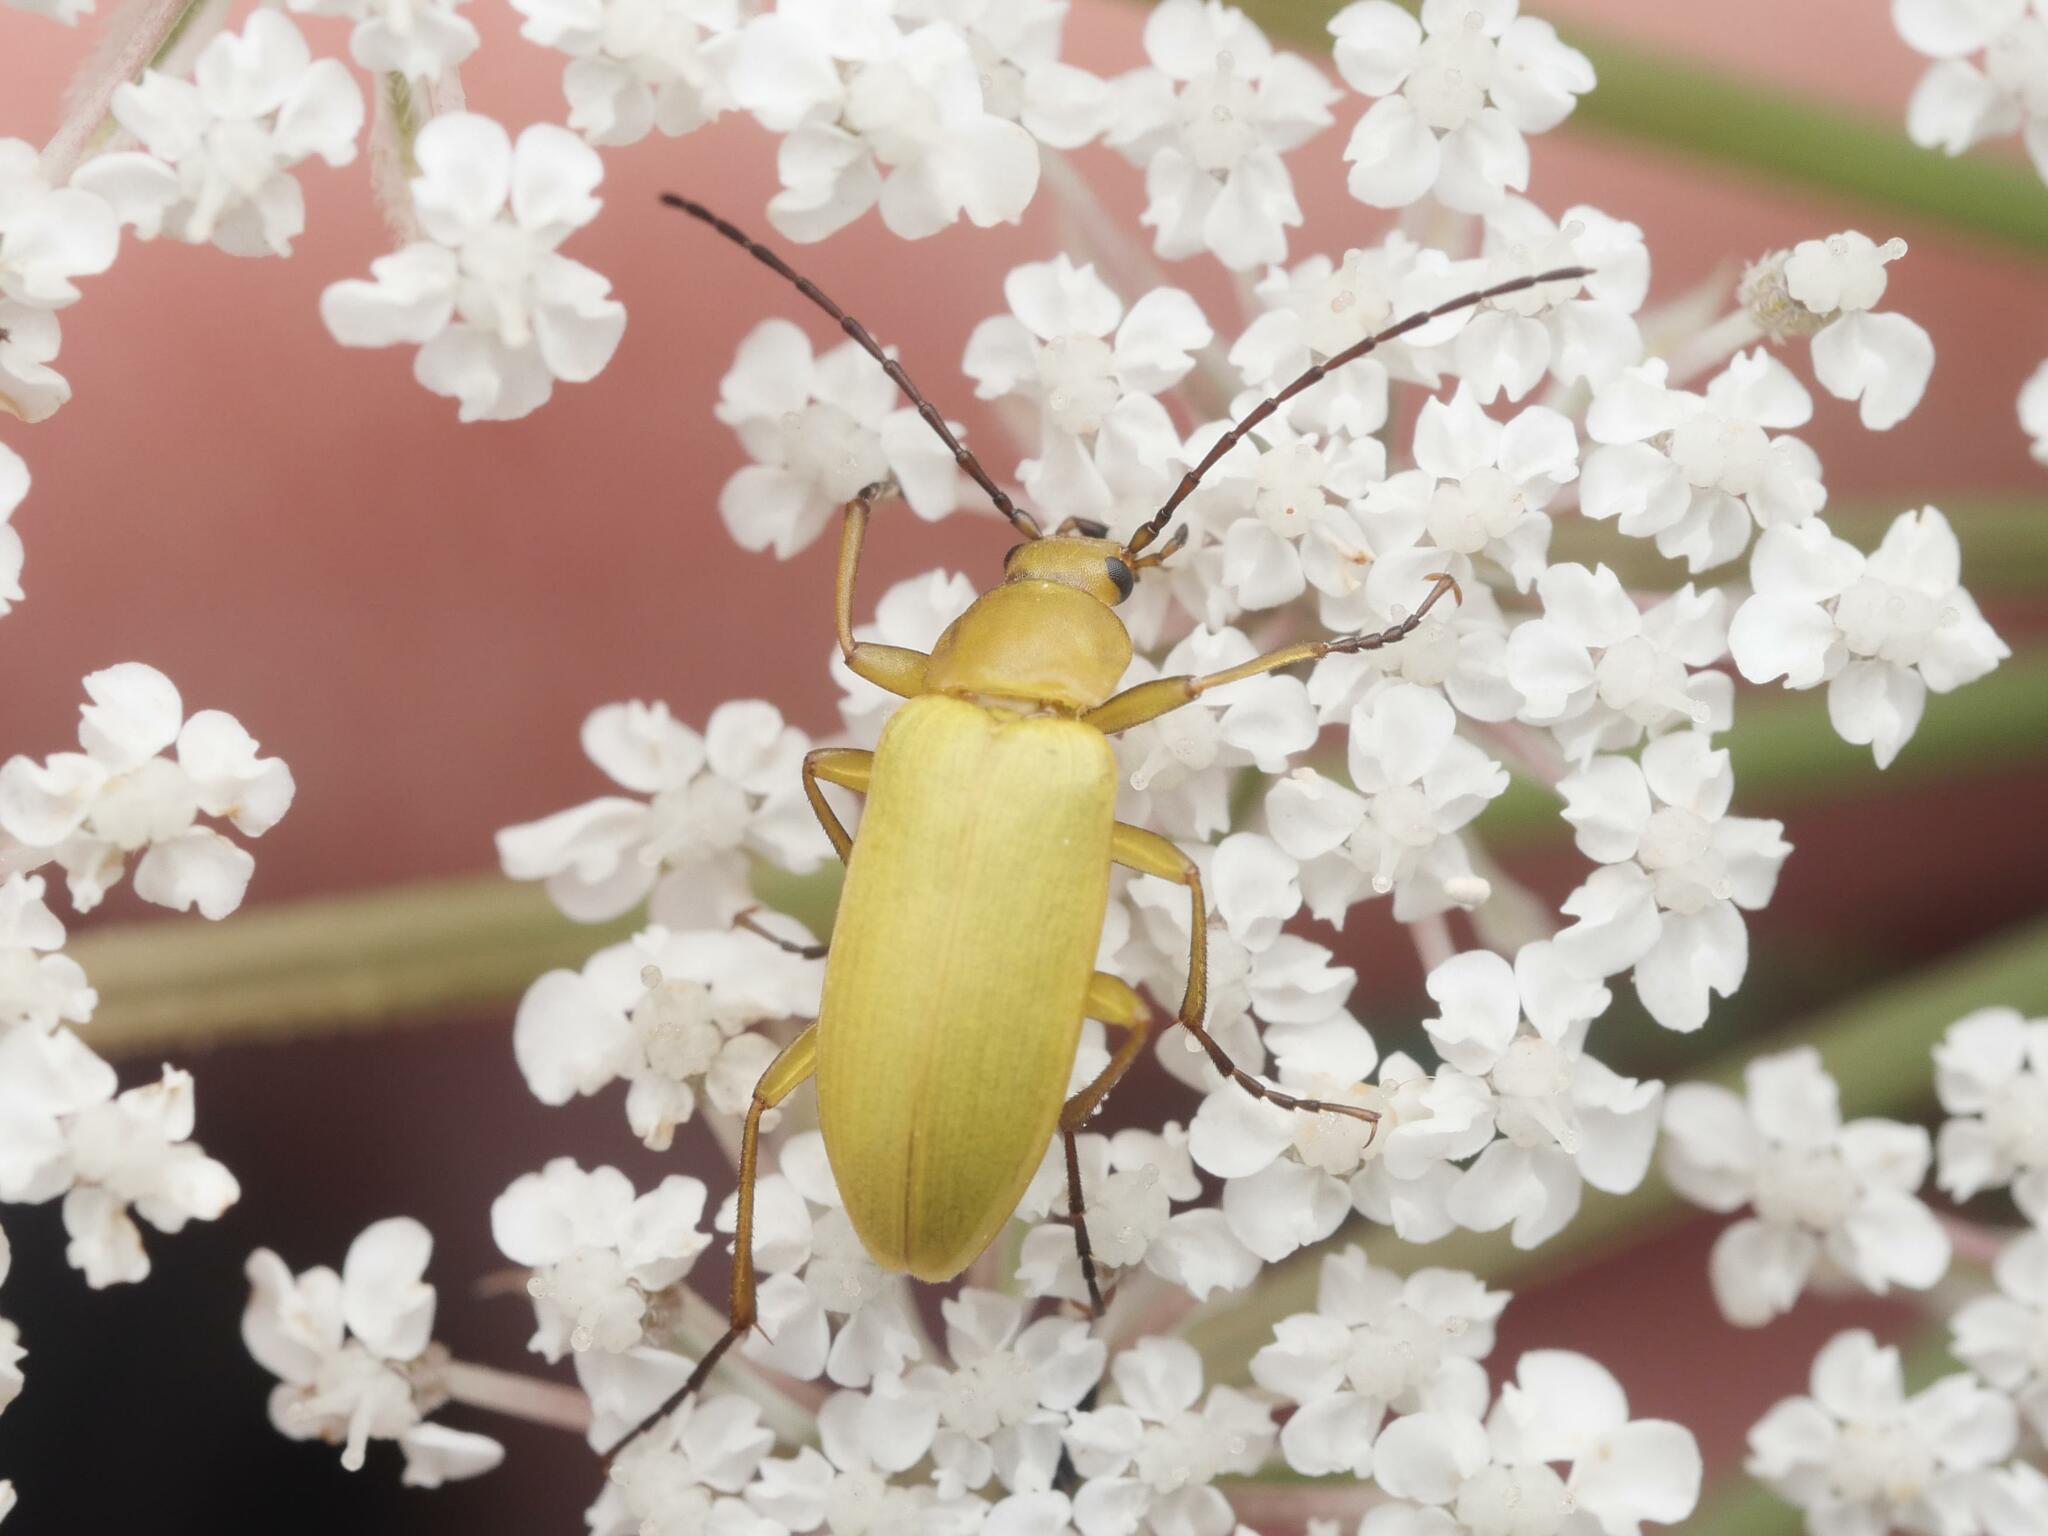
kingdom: Animalia
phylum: Arthropoda
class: Insecta
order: Coleoptera
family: Tenebrionidae
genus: Cteniopus
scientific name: Cteniopus sulphureus
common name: Sulphur beetle
